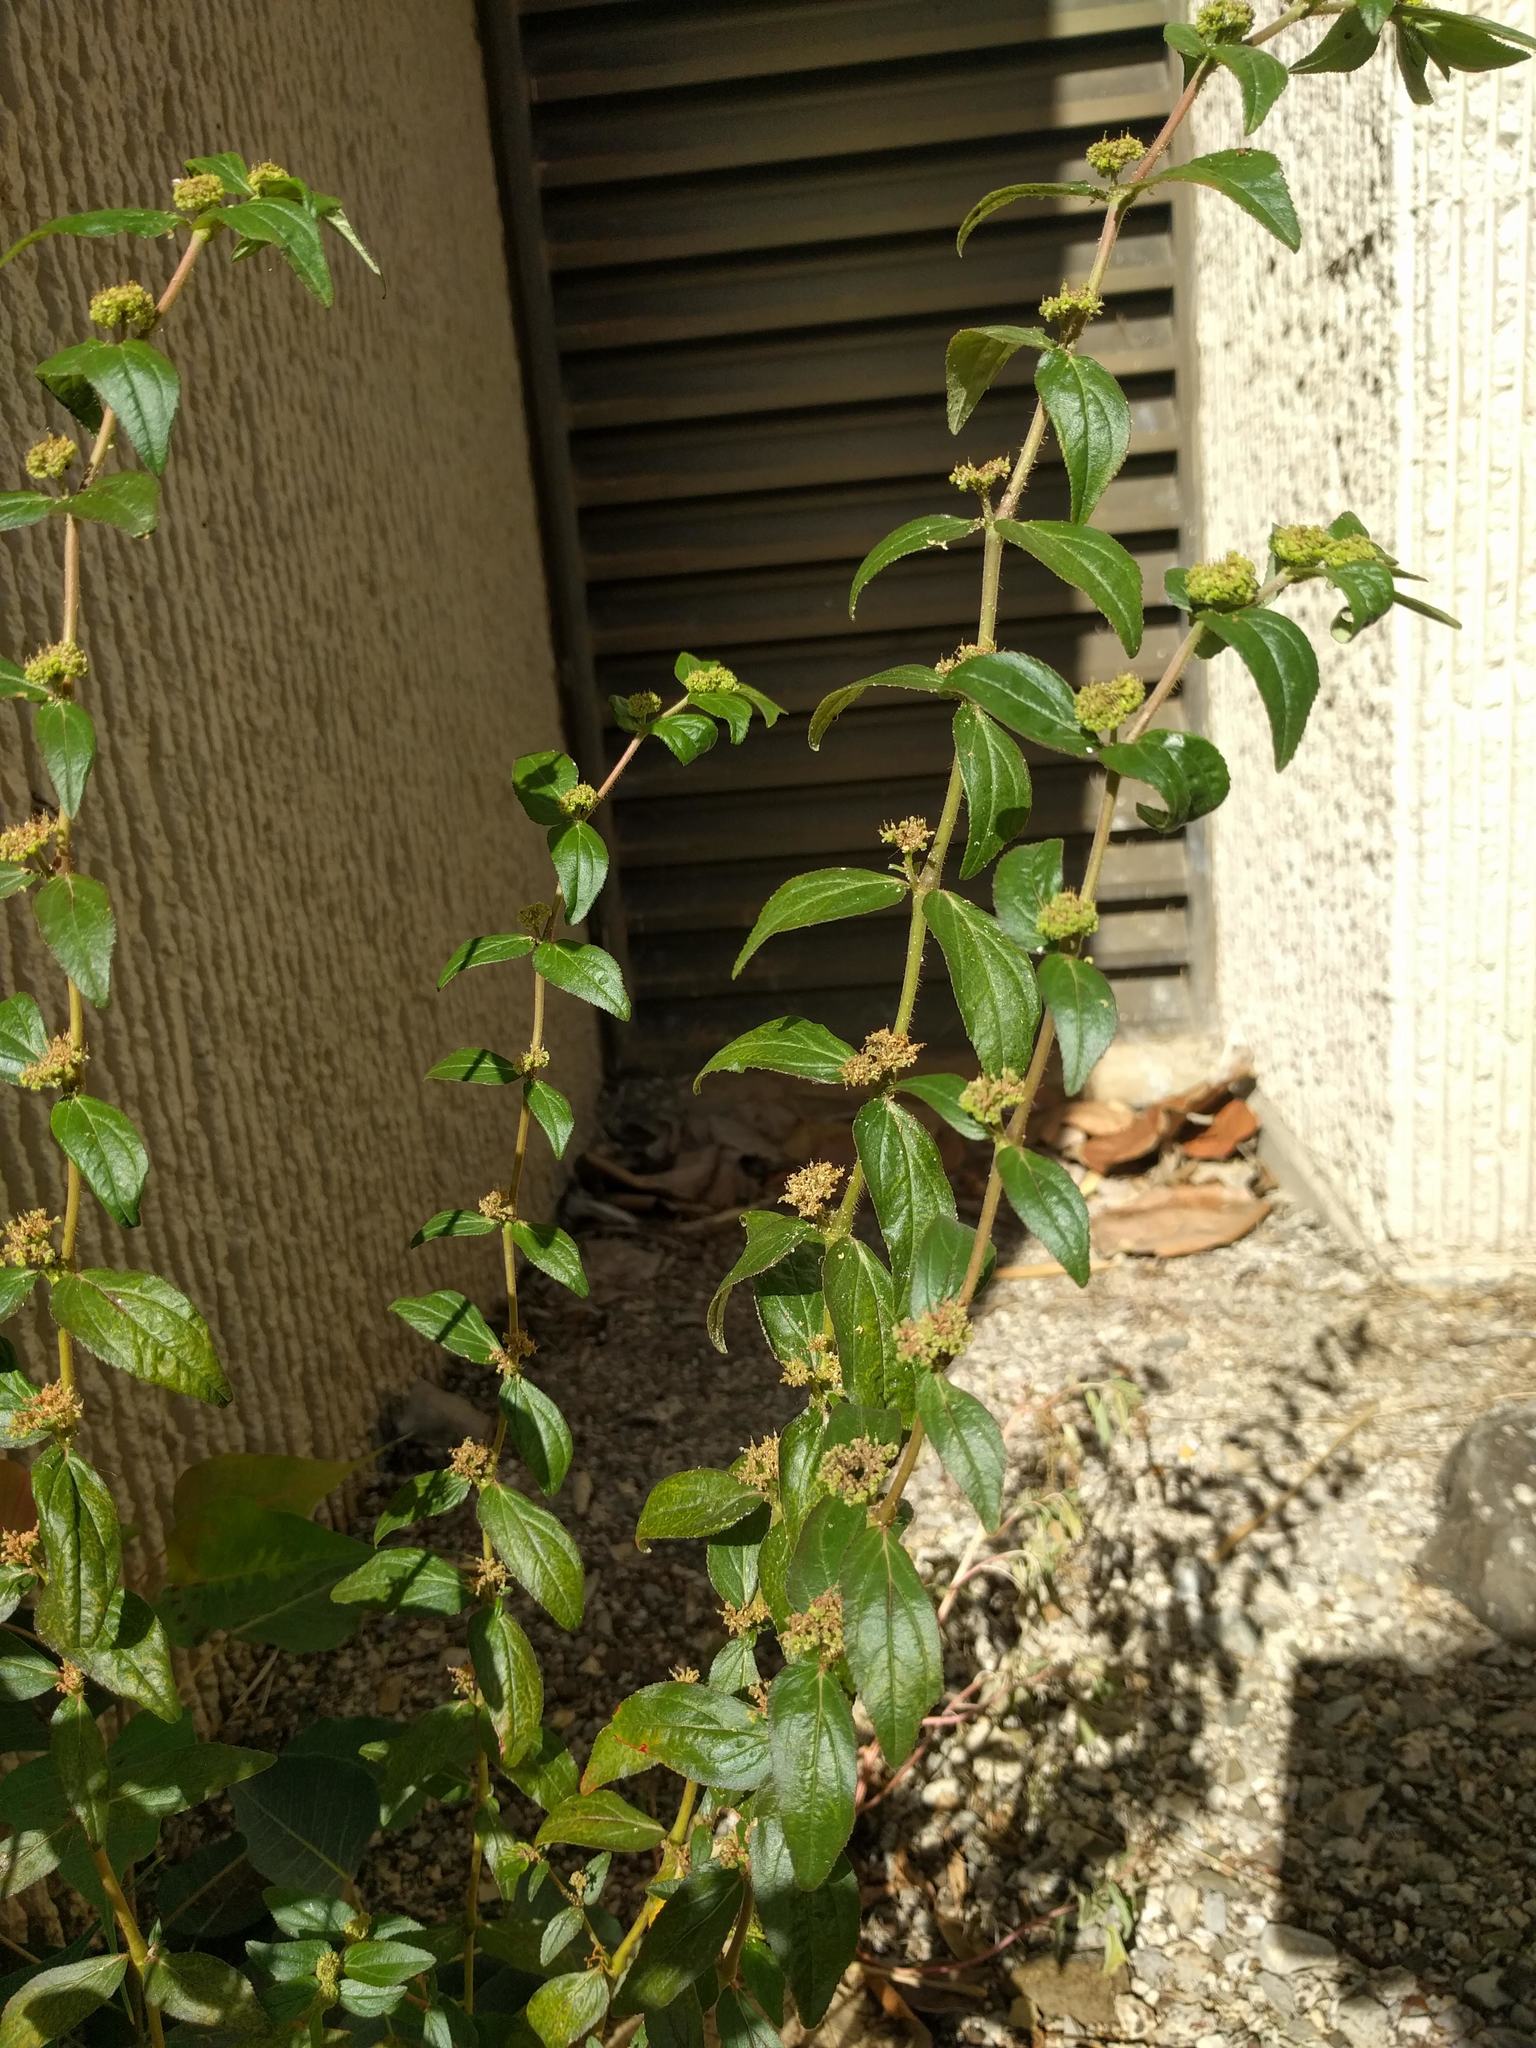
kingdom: Plantae
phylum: Tracheophyta
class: Magnoliopsida
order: Malpighiales
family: Euphorbiaceae
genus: Euphorbia
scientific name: Euphorbia hirta
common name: Pillpod sandmat
